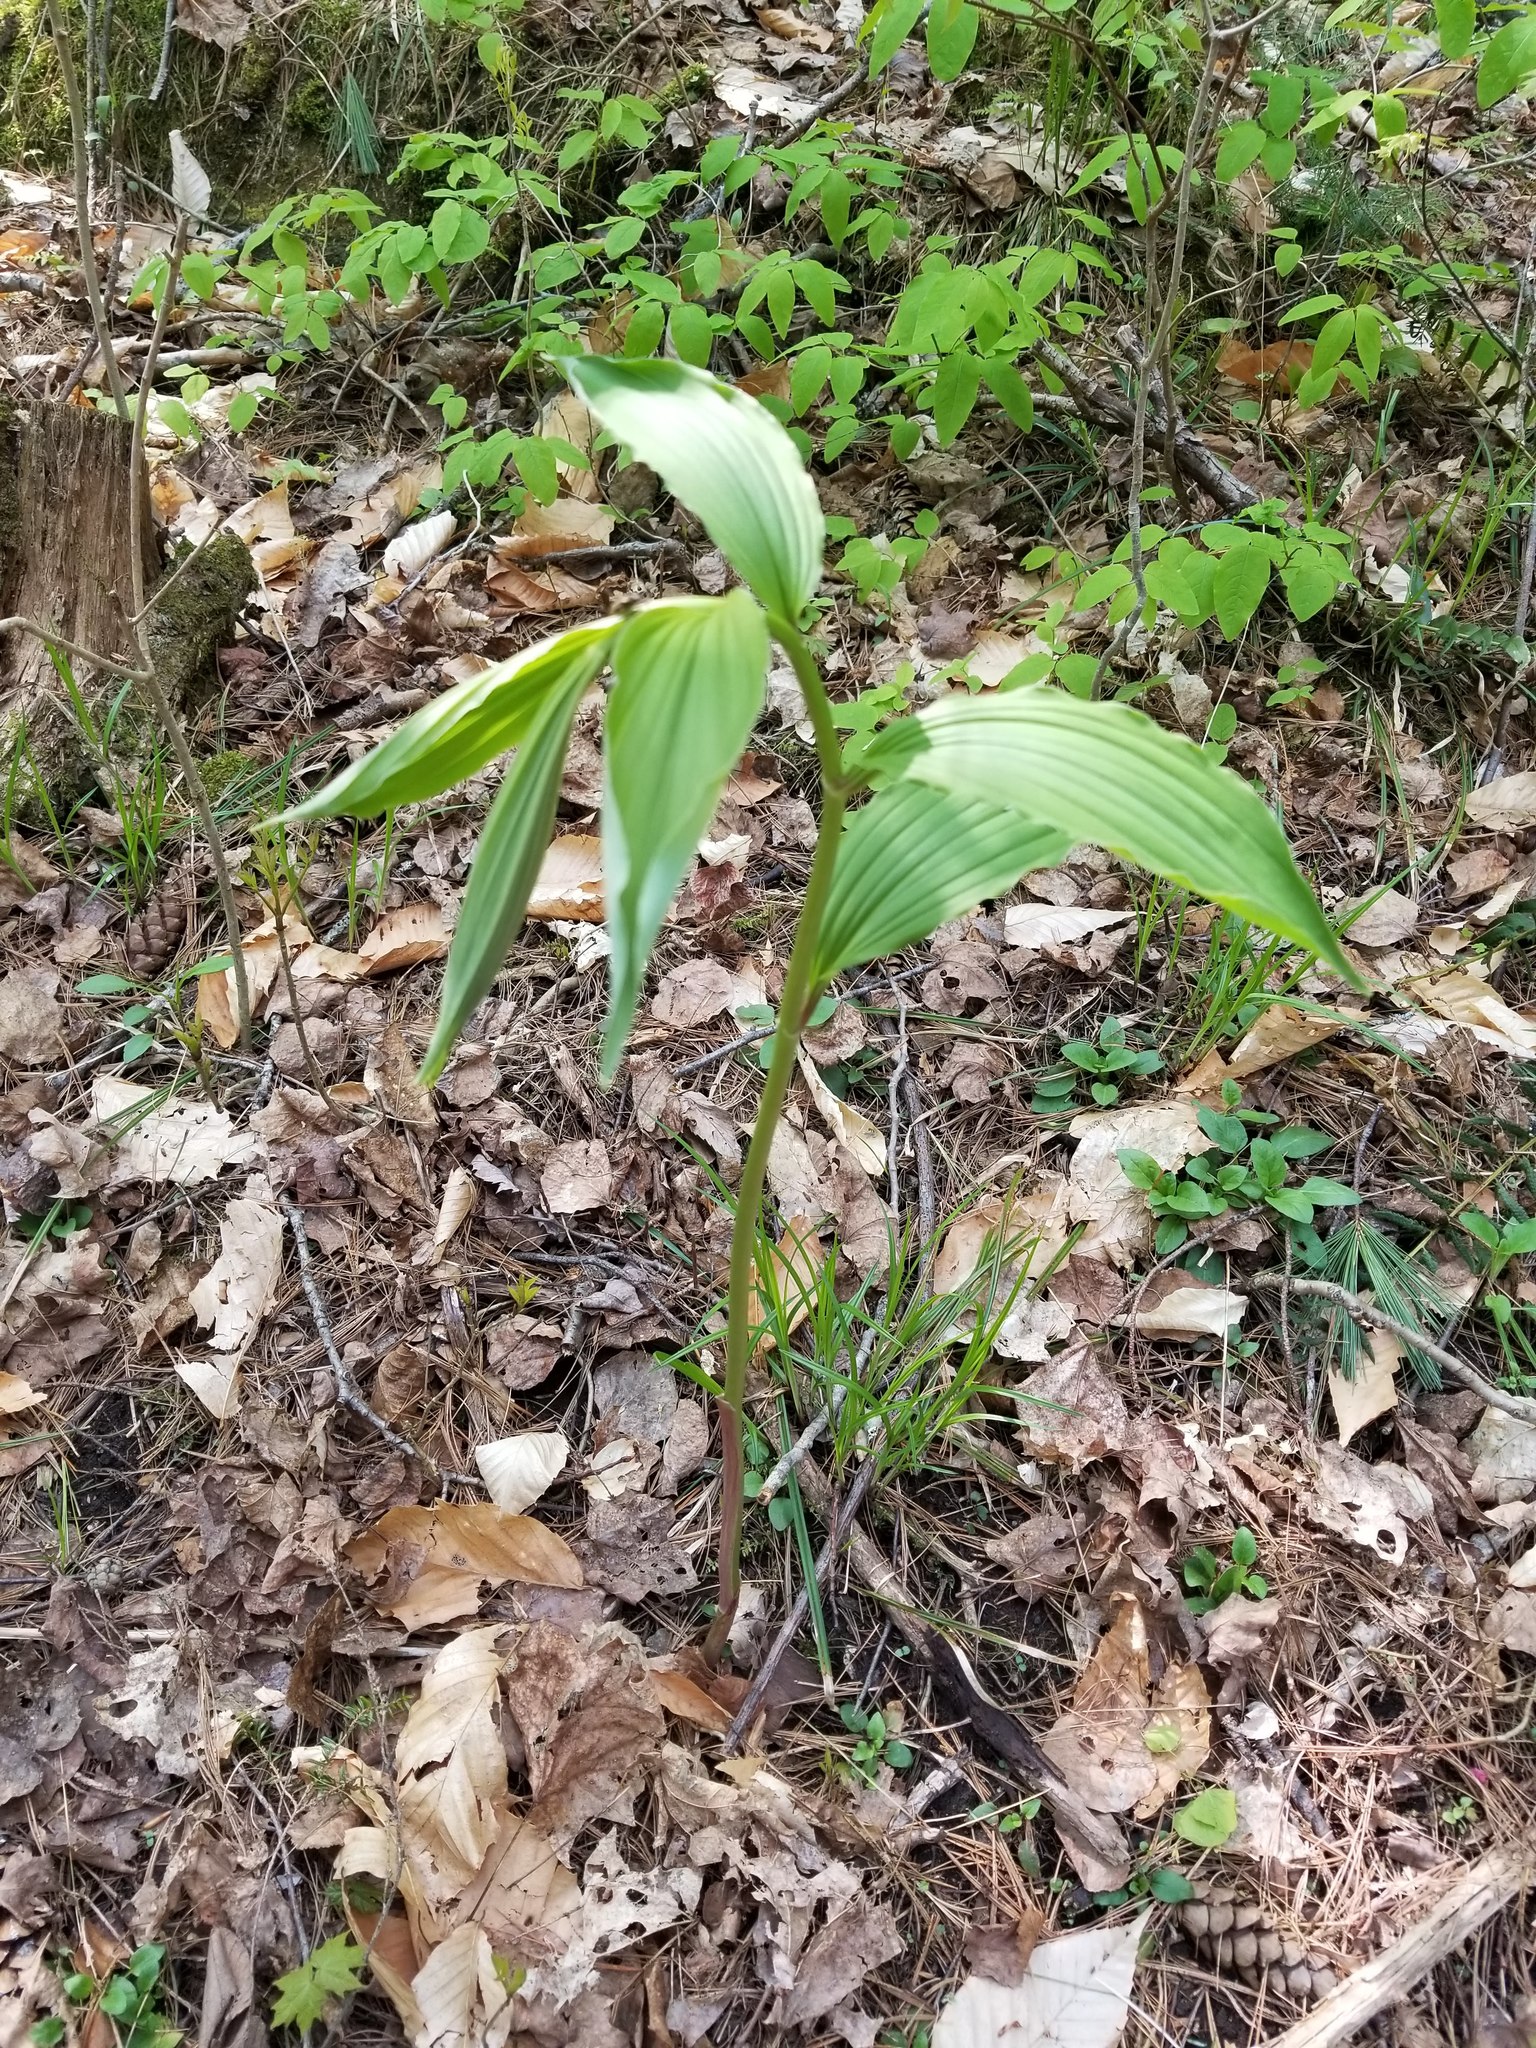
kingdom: Plantae
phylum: Tracheophyta
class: Liliopsida
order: Asparagales
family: Asparagaceae
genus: Maianthemum
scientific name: Maianthemum racemosum
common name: False spikenard
